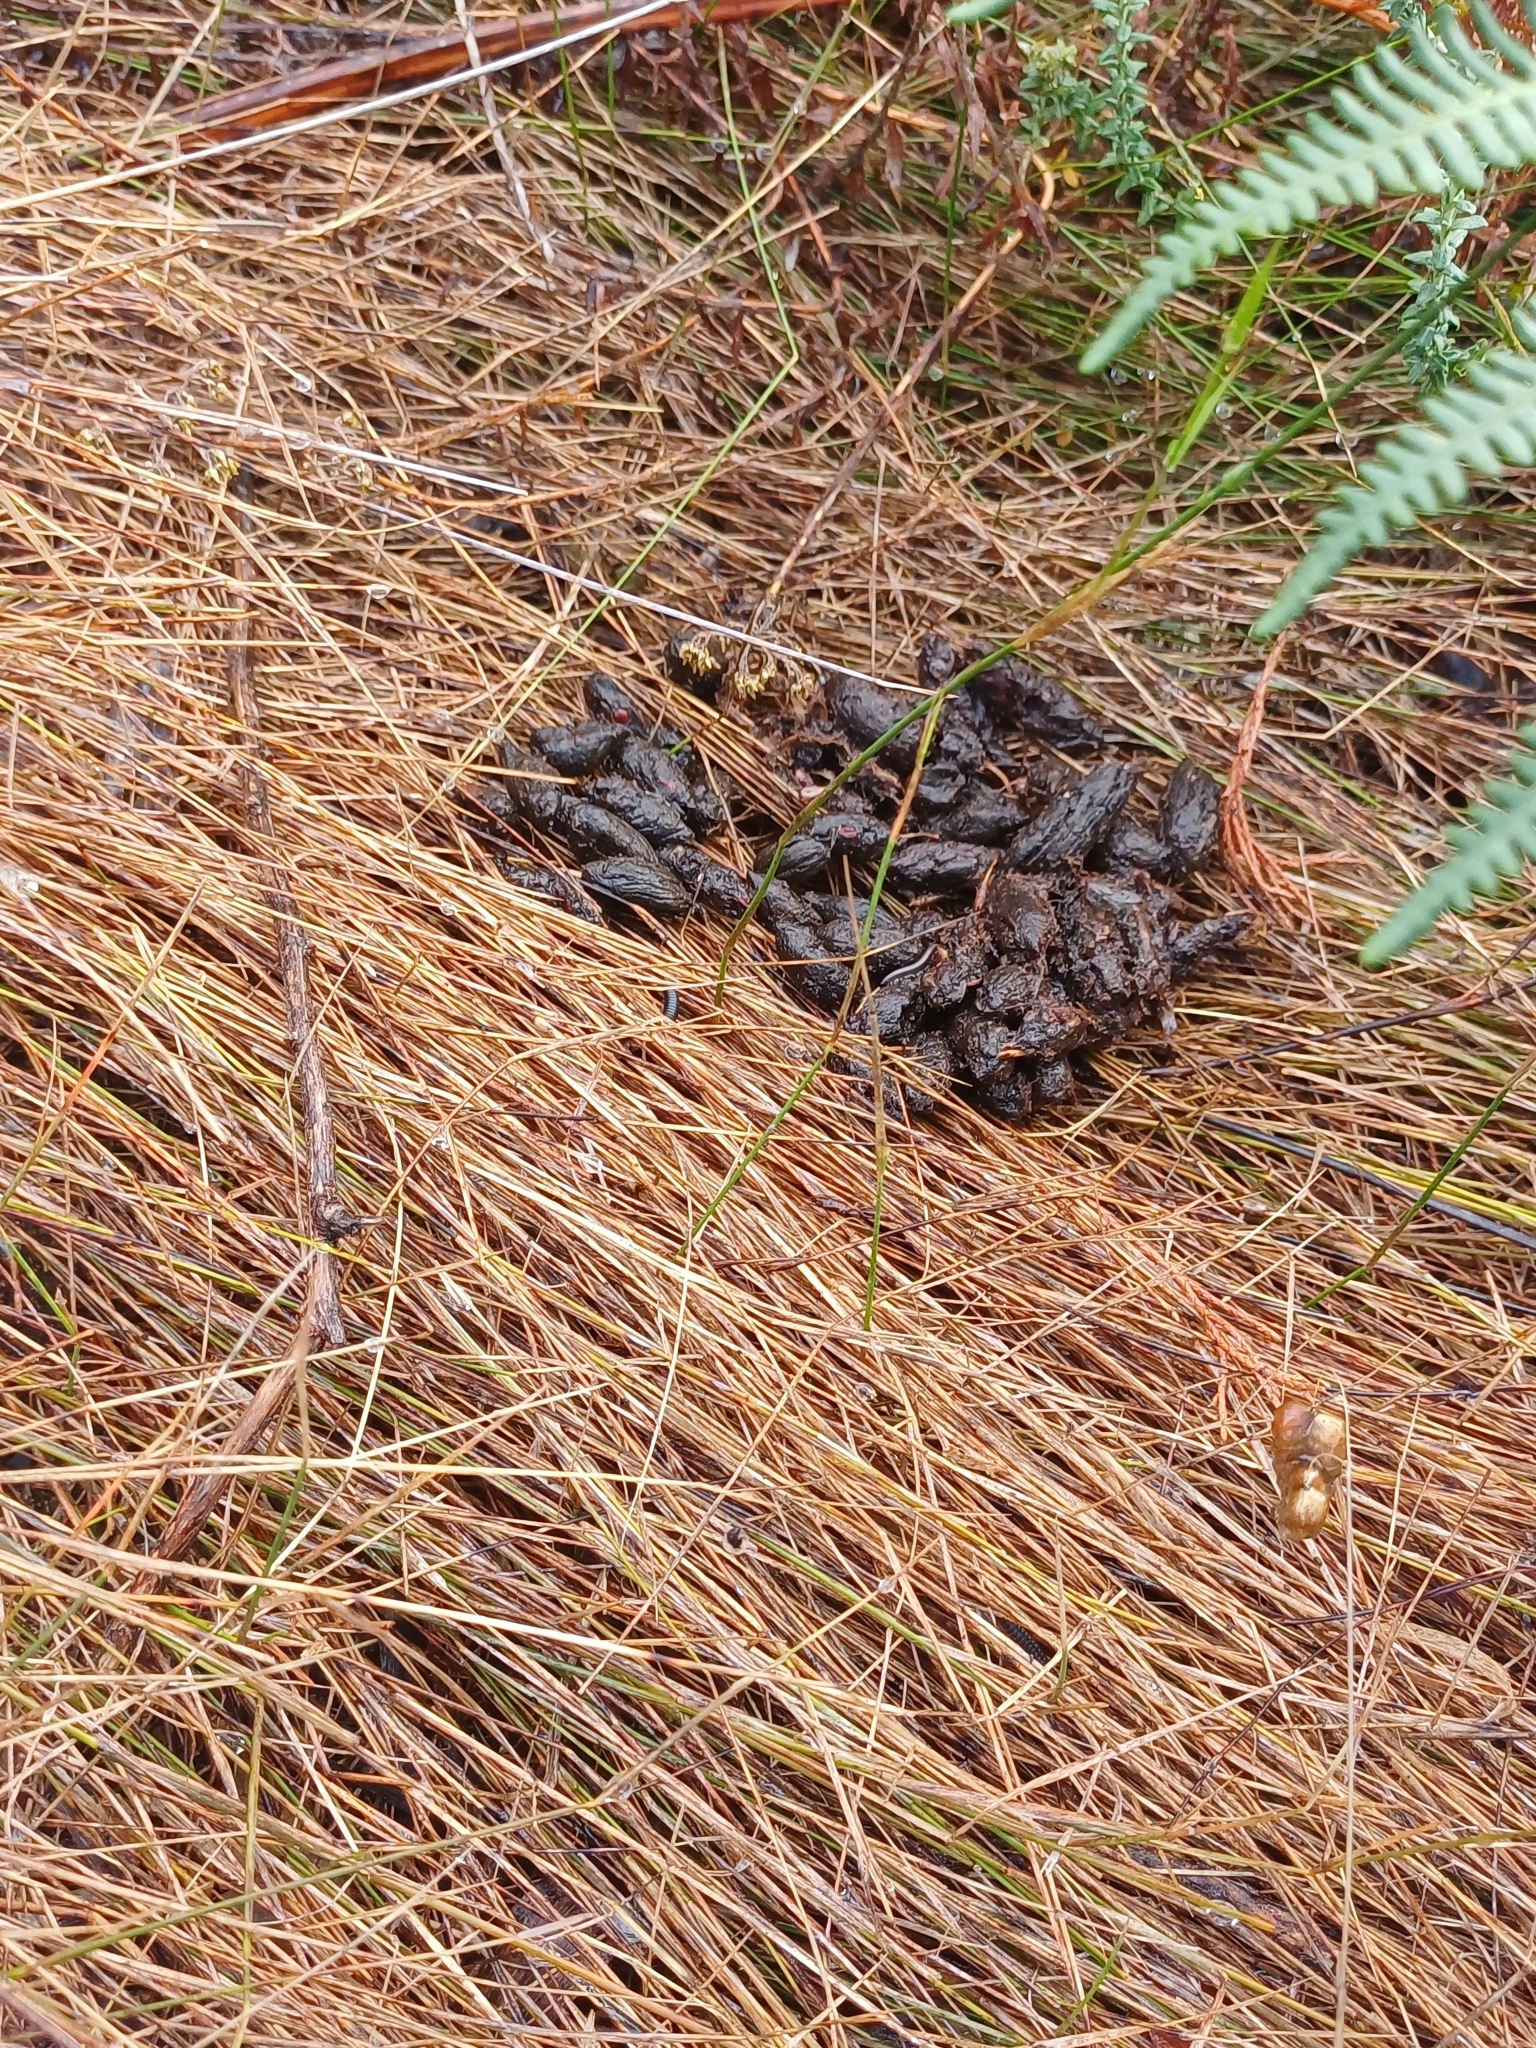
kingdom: Animalia
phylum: Chordata
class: Mammalia
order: Rodentia
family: Hystricidae
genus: Hystrix
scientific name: Hystrix africaeaustralis
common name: Cape porcupine
